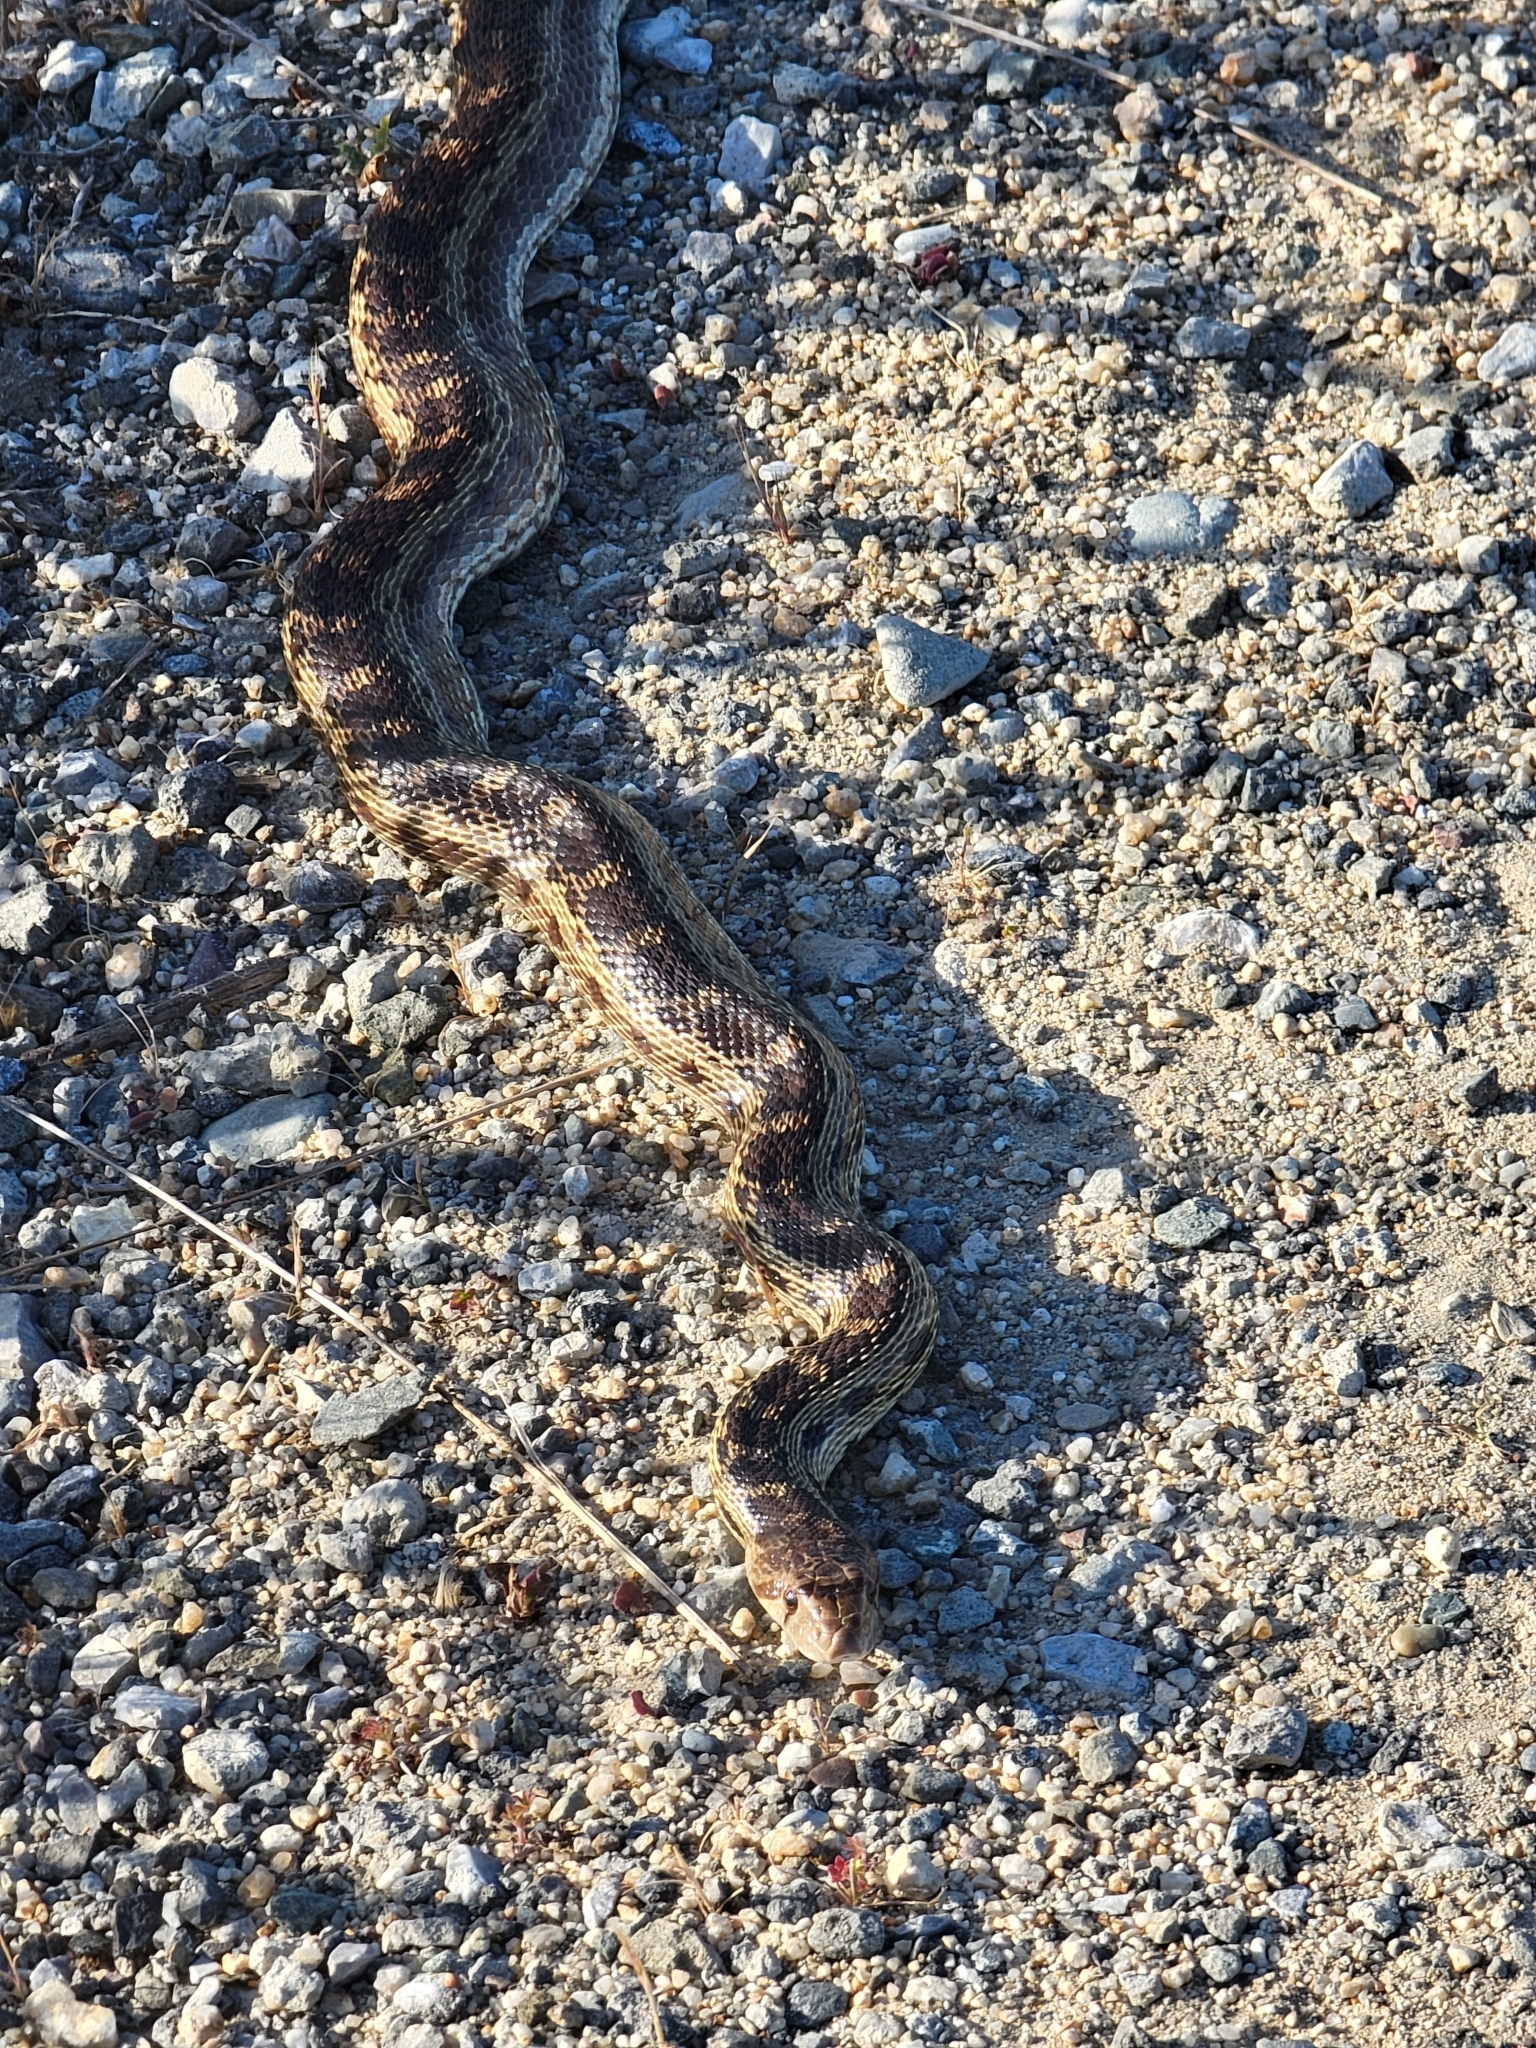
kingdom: Animalia
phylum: Chordata
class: Squamata
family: Colubridae
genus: Pituophis
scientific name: Pituophis catenifer
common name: Gopher snake
